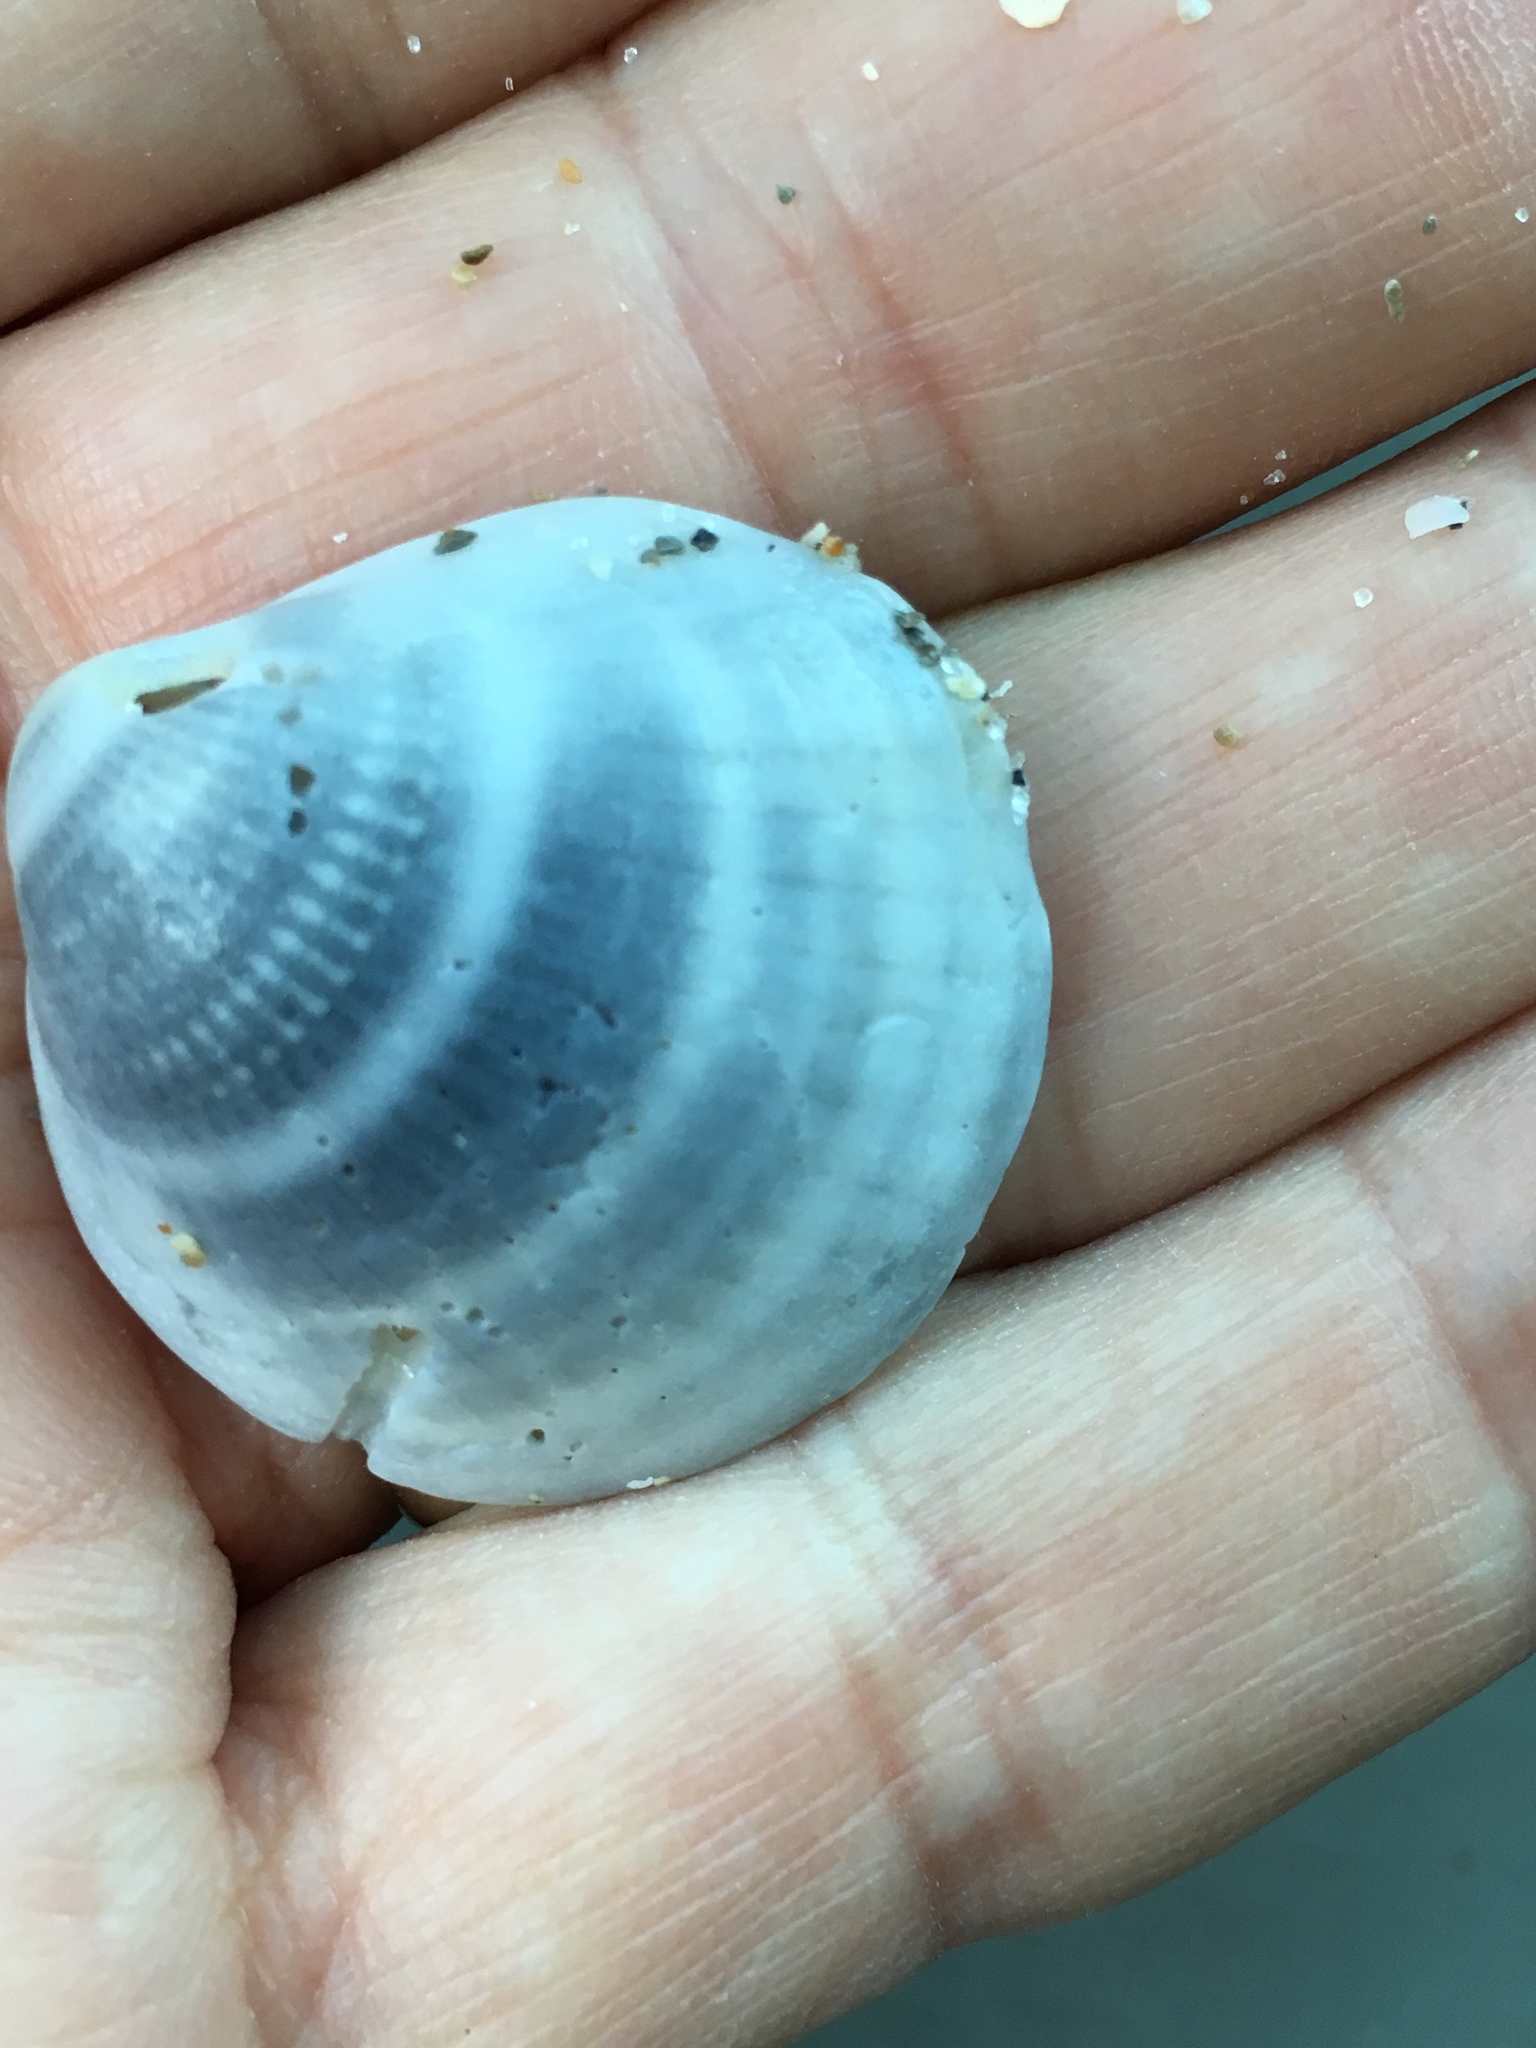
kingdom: Animalia
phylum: Mollusca
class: Bivalvia
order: Arcida
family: Glycymerididae
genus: Glycymeris
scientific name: Glycymeris spectralis
